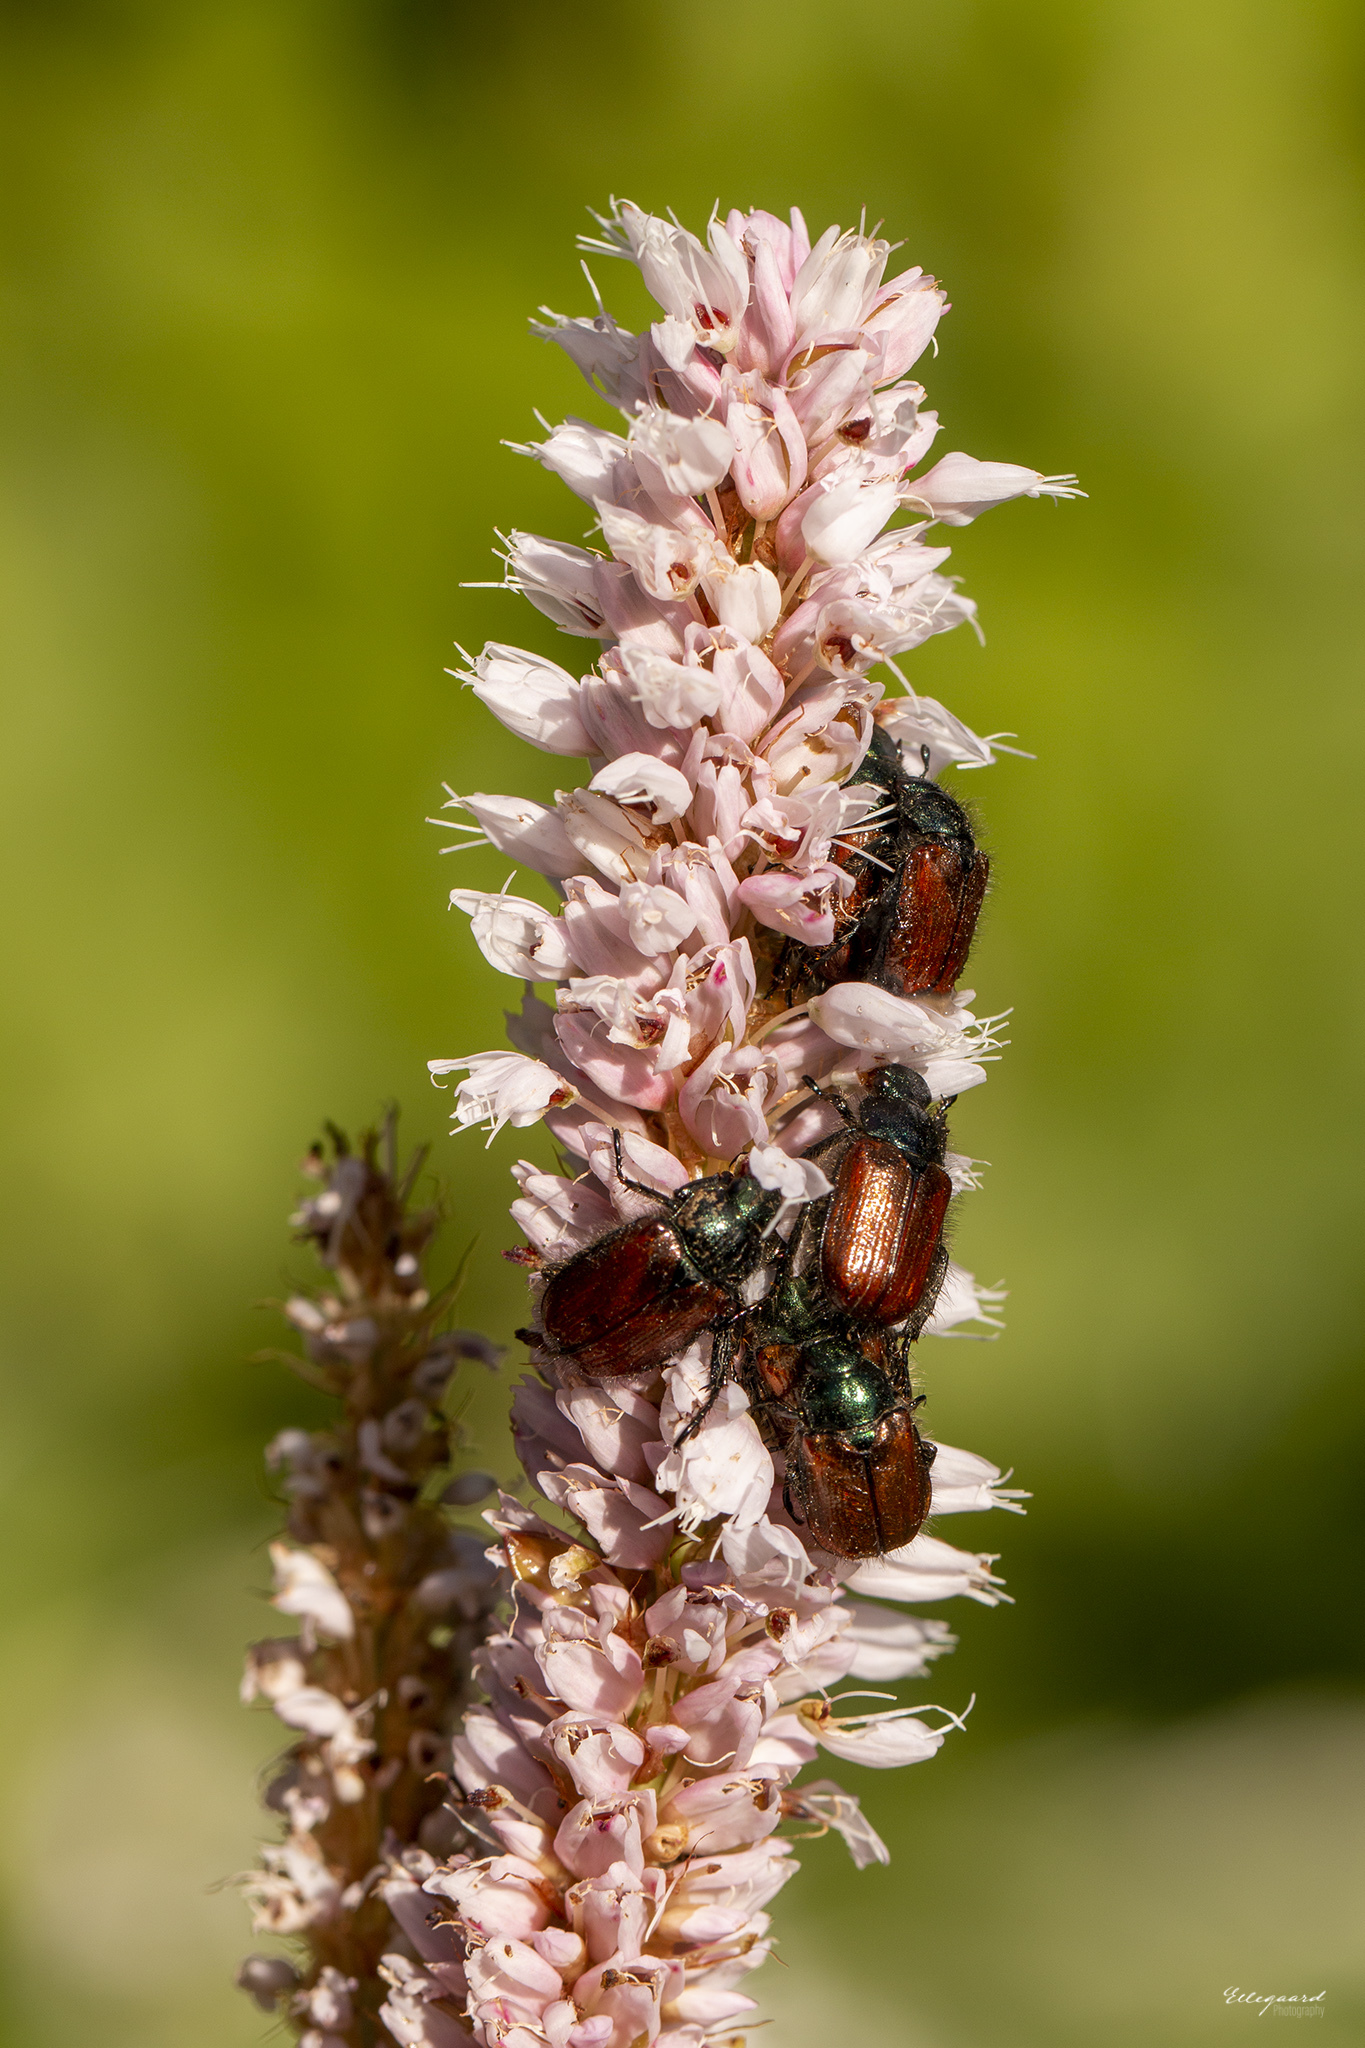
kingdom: Animalia
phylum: Arthropoda
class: Insecta
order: Coleoptera
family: Scarabaeidae
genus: Phyllopertha
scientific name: Phyllopertha horticola
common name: Garden chafer
